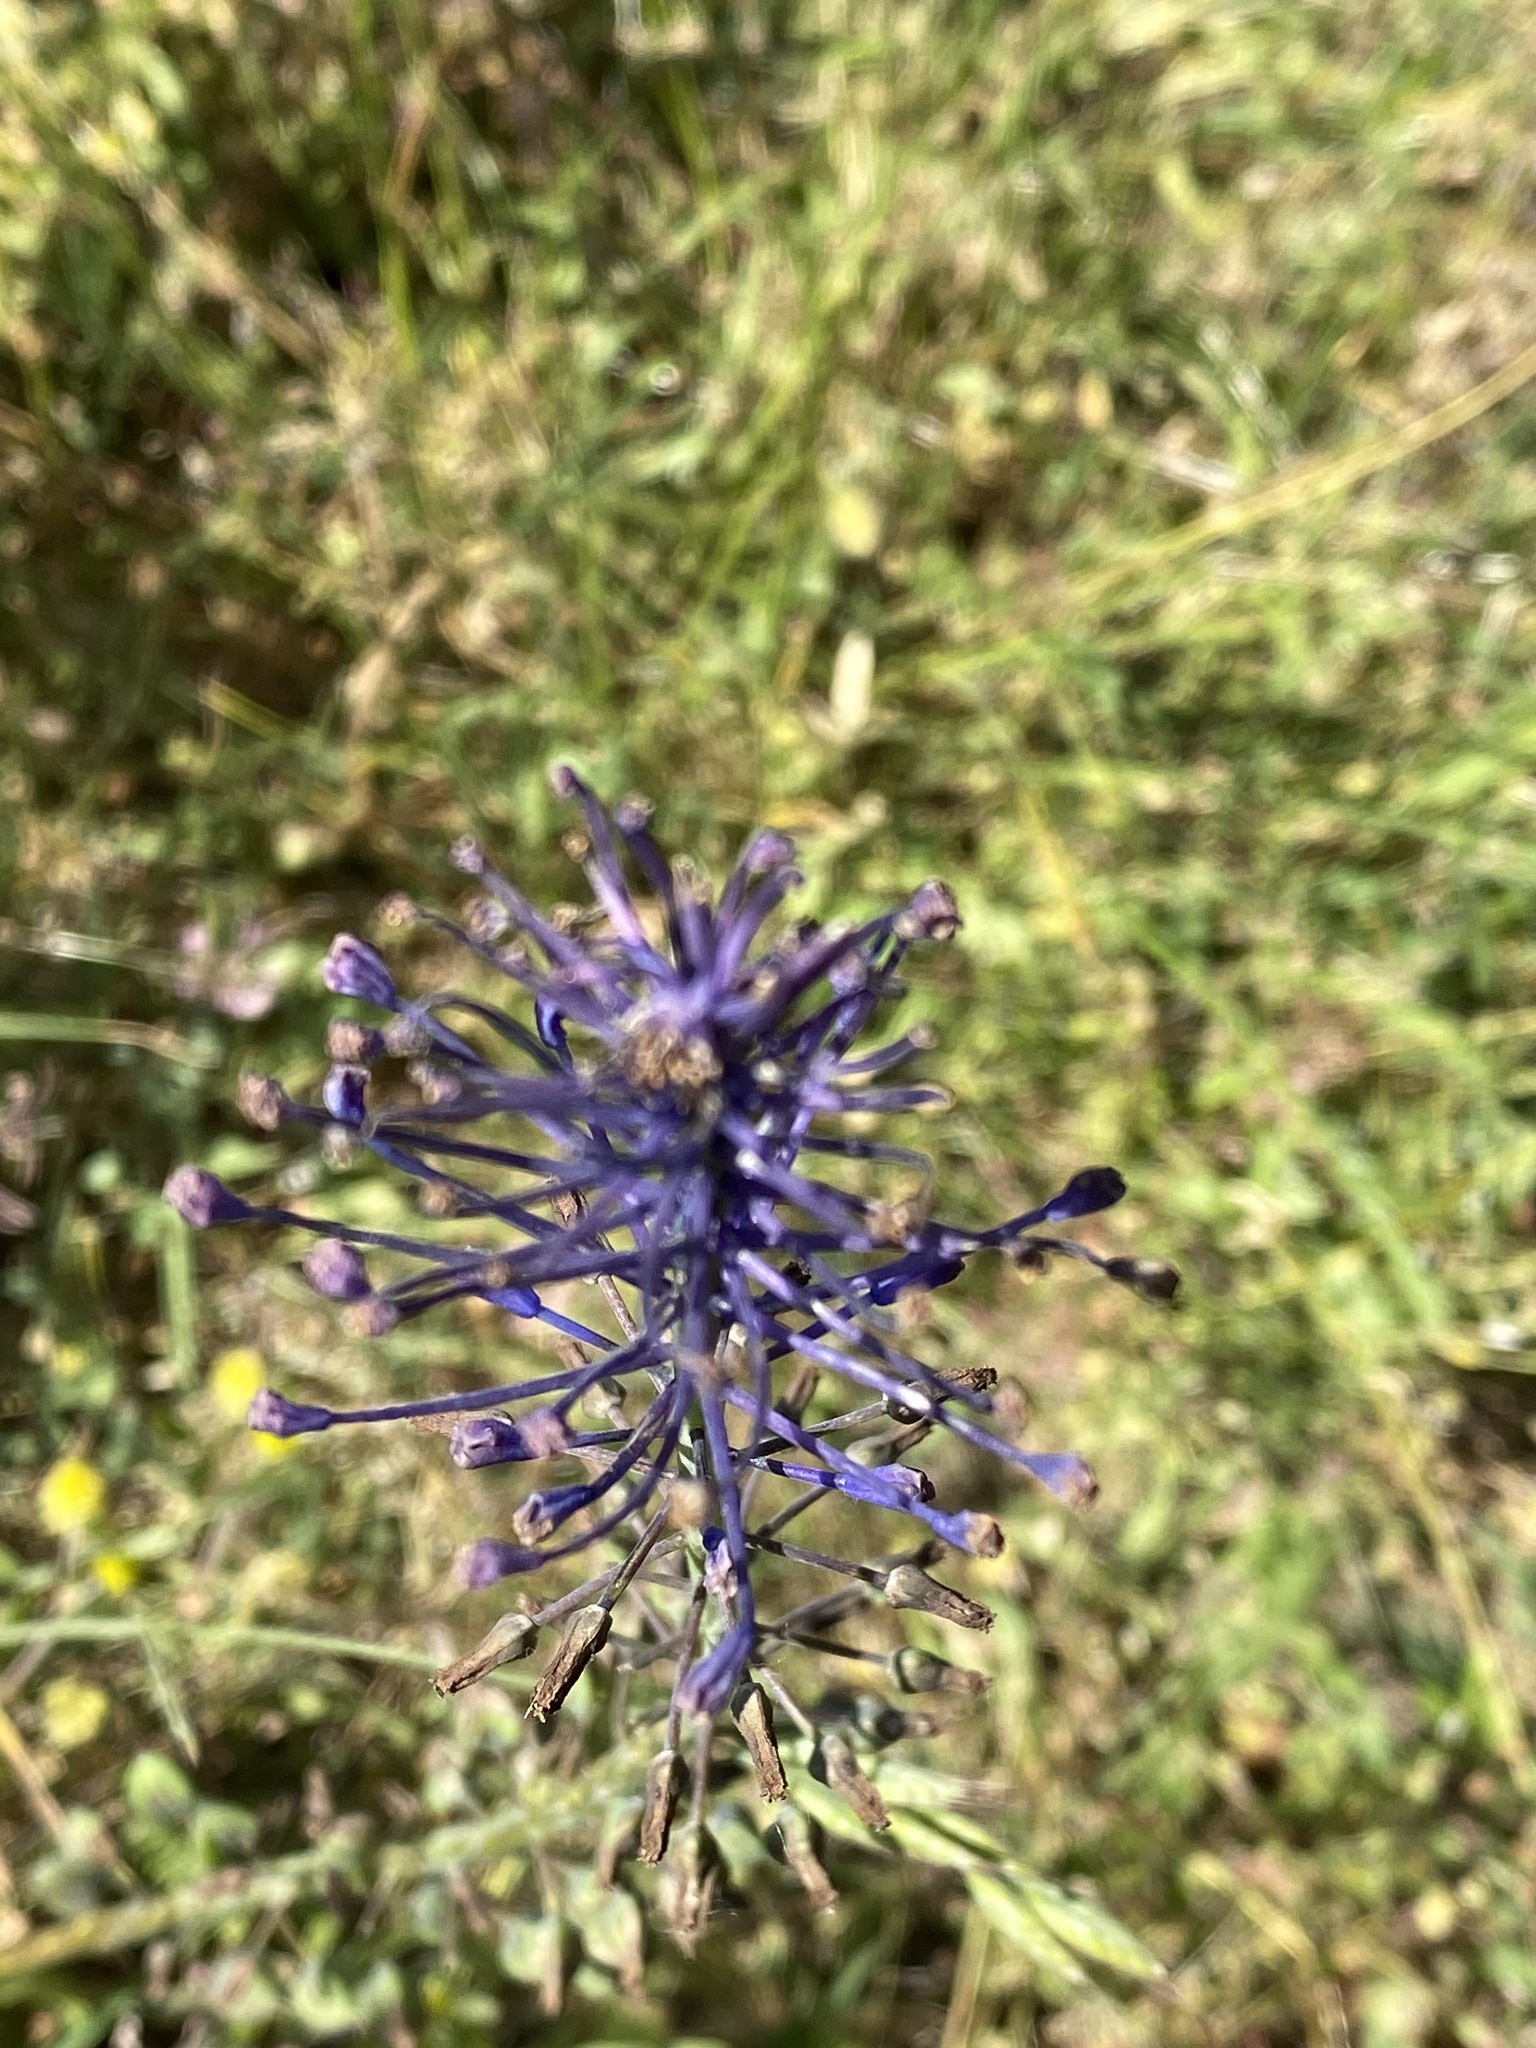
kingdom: Plantae
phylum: Tracheophyta
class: Liliopsida
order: Asparagales
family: Asparagaceae
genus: Muscari
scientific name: Muscari comosum
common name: Tassel hyacinth
